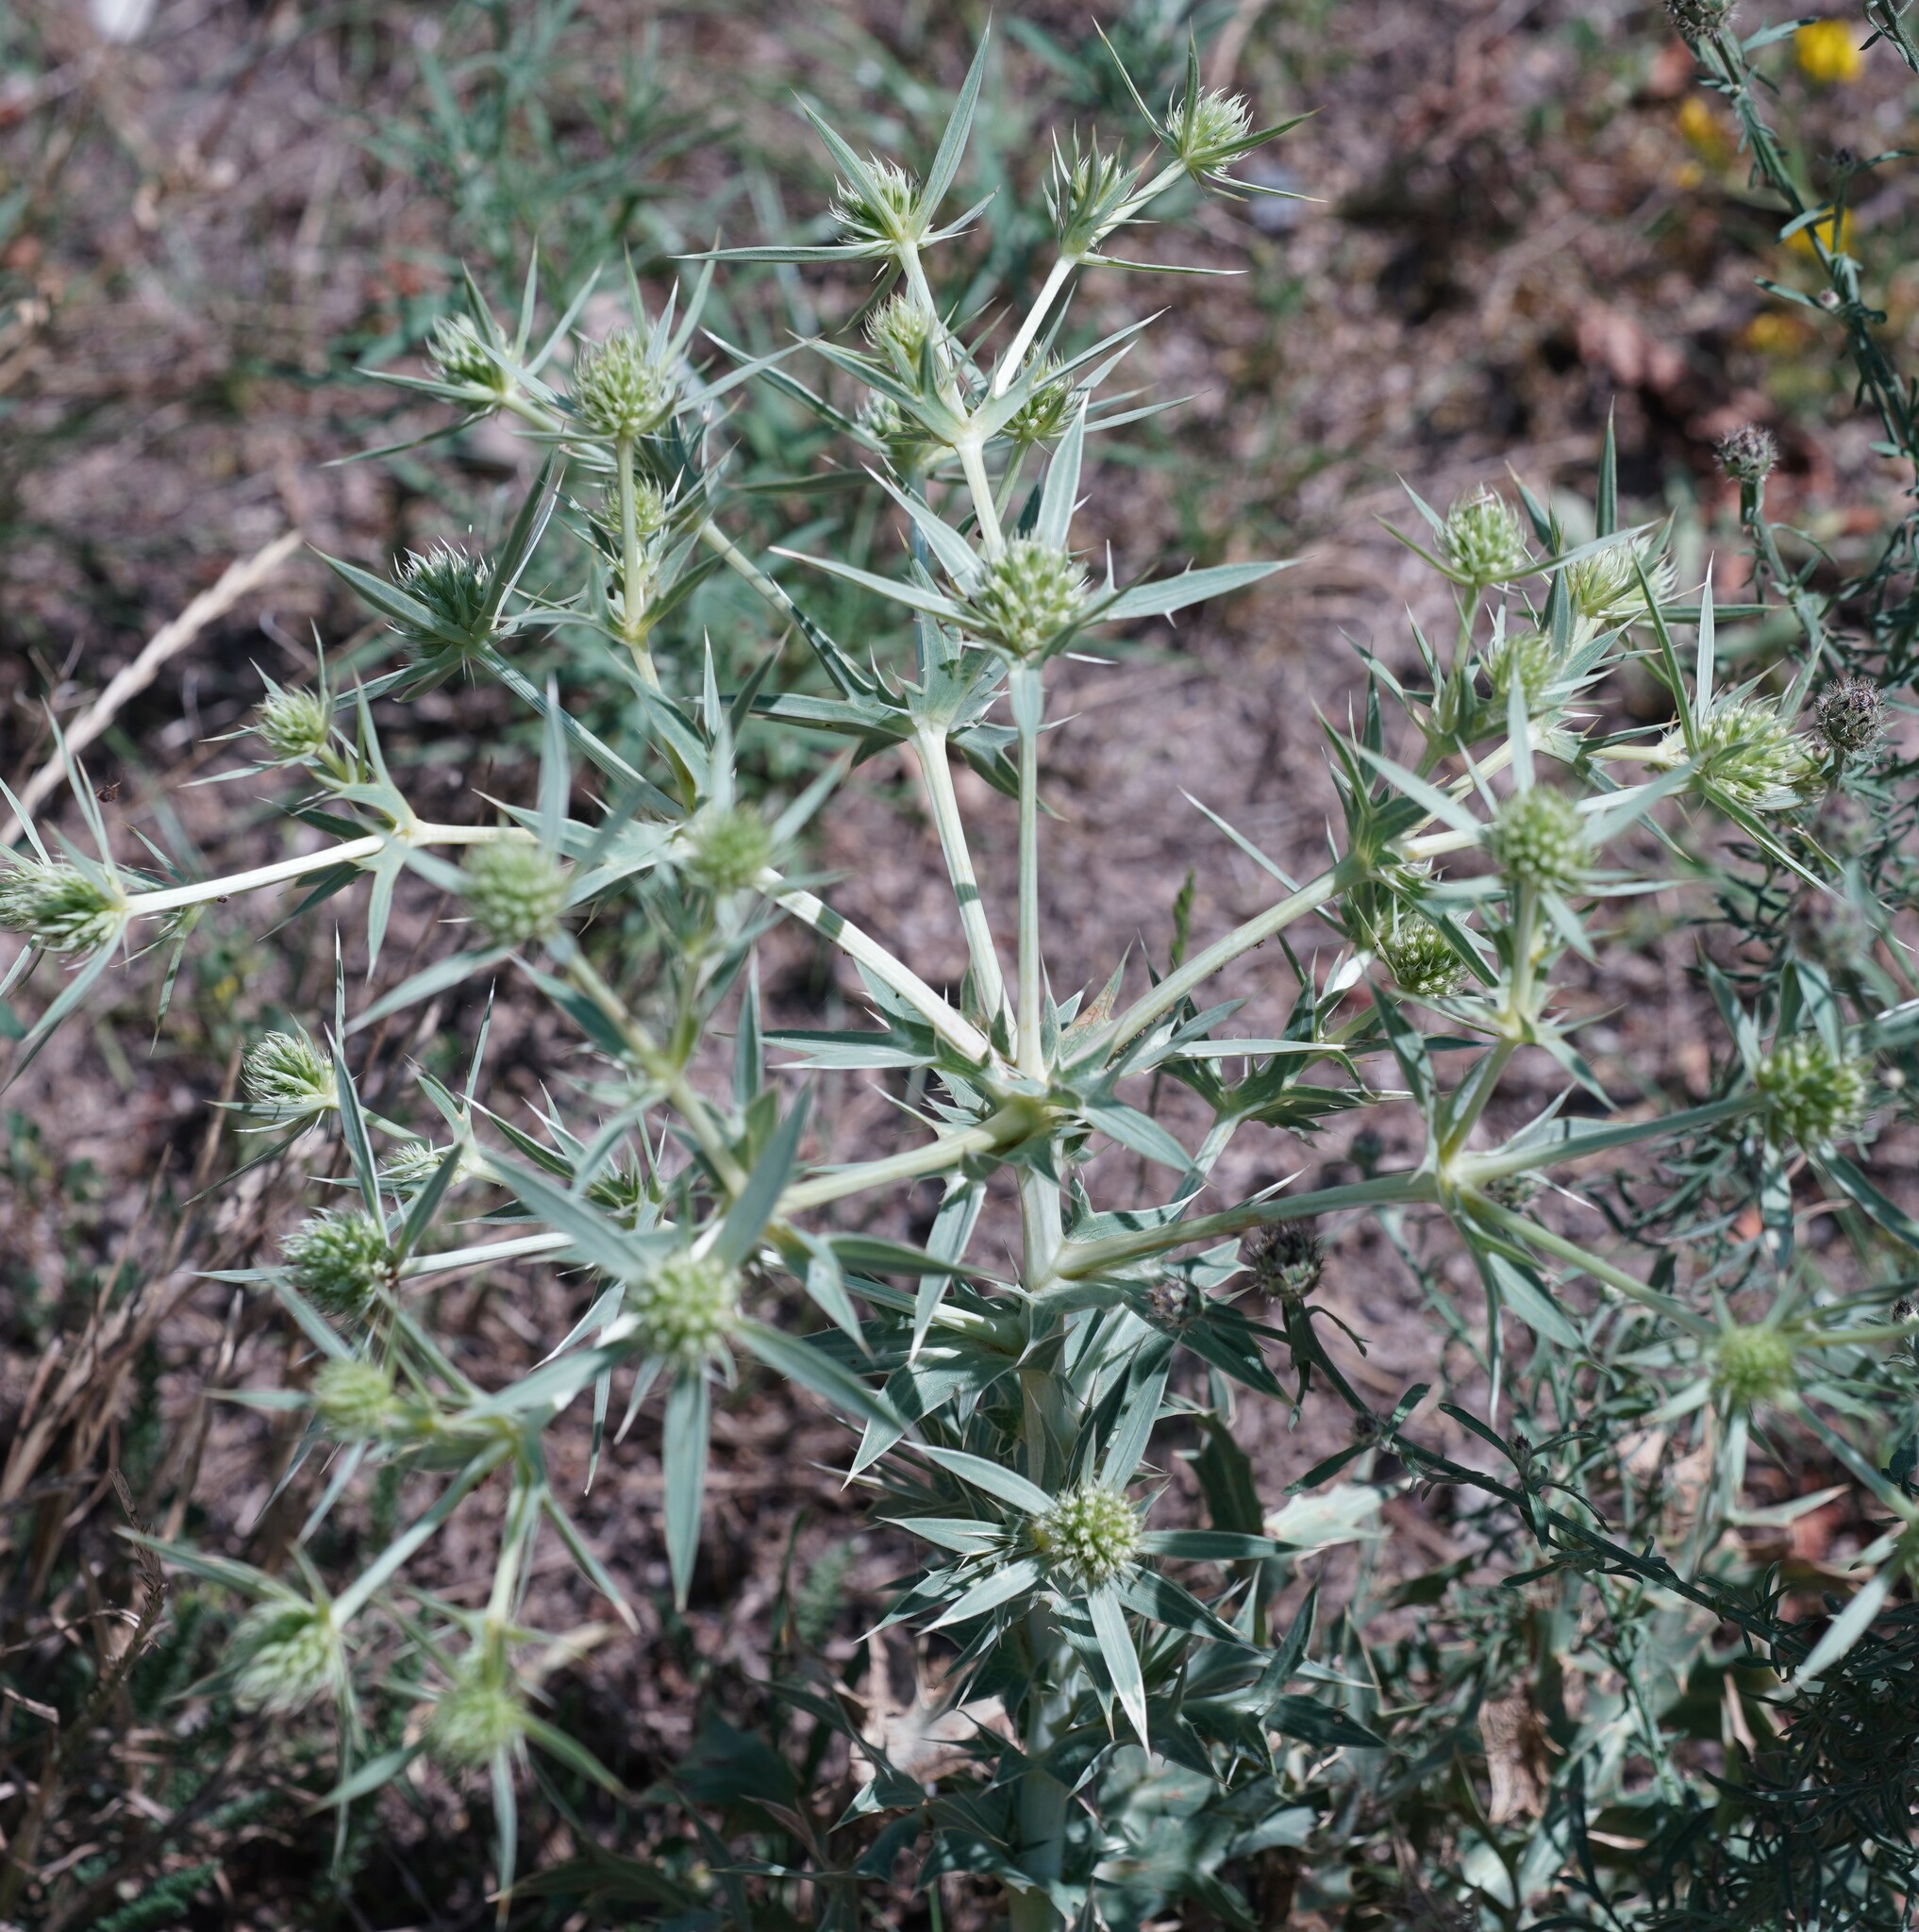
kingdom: Plantae
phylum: Tracheophyta
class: Magnoliopsida
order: Apiales
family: Apiaceae
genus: Eryngium
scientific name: Eryngium campestre
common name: Field eryngo
